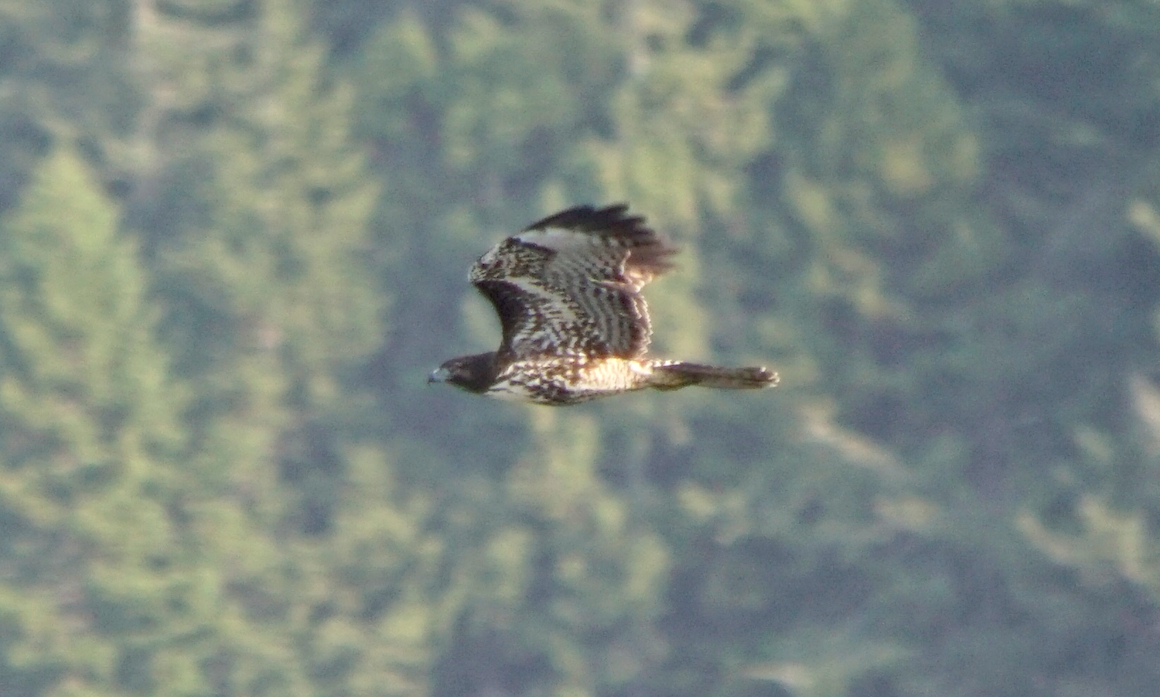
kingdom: Animalia
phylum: Chordata
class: Aves
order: Accipitriformes
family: Accipitridae
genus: Buteo
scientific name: Buteo jamaicensis
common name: Red-tailed hawk
